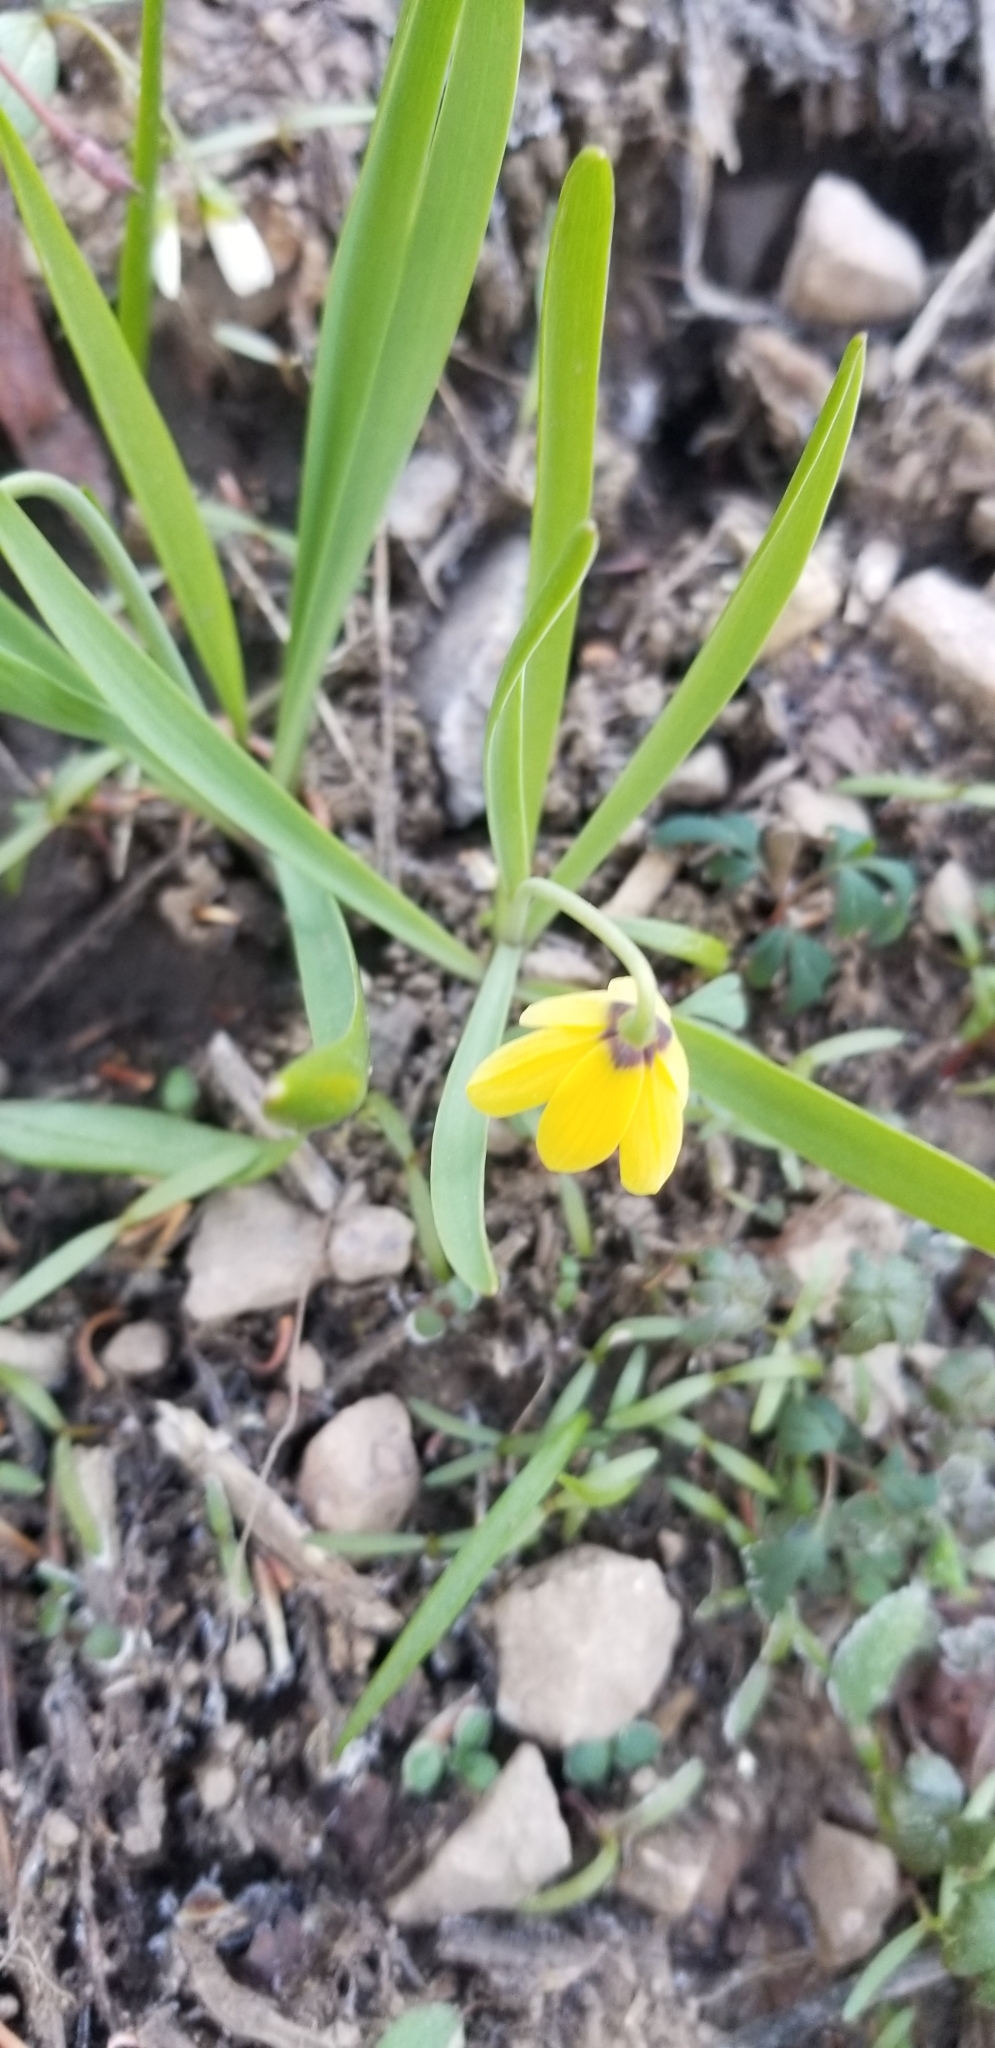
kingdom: Plantae
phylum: Tracheophyta
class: Liliopsida
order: Liliales
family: Liliaceae
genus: Fritillaria
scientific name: Fritillaria pudica
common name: Yellow fritillary
